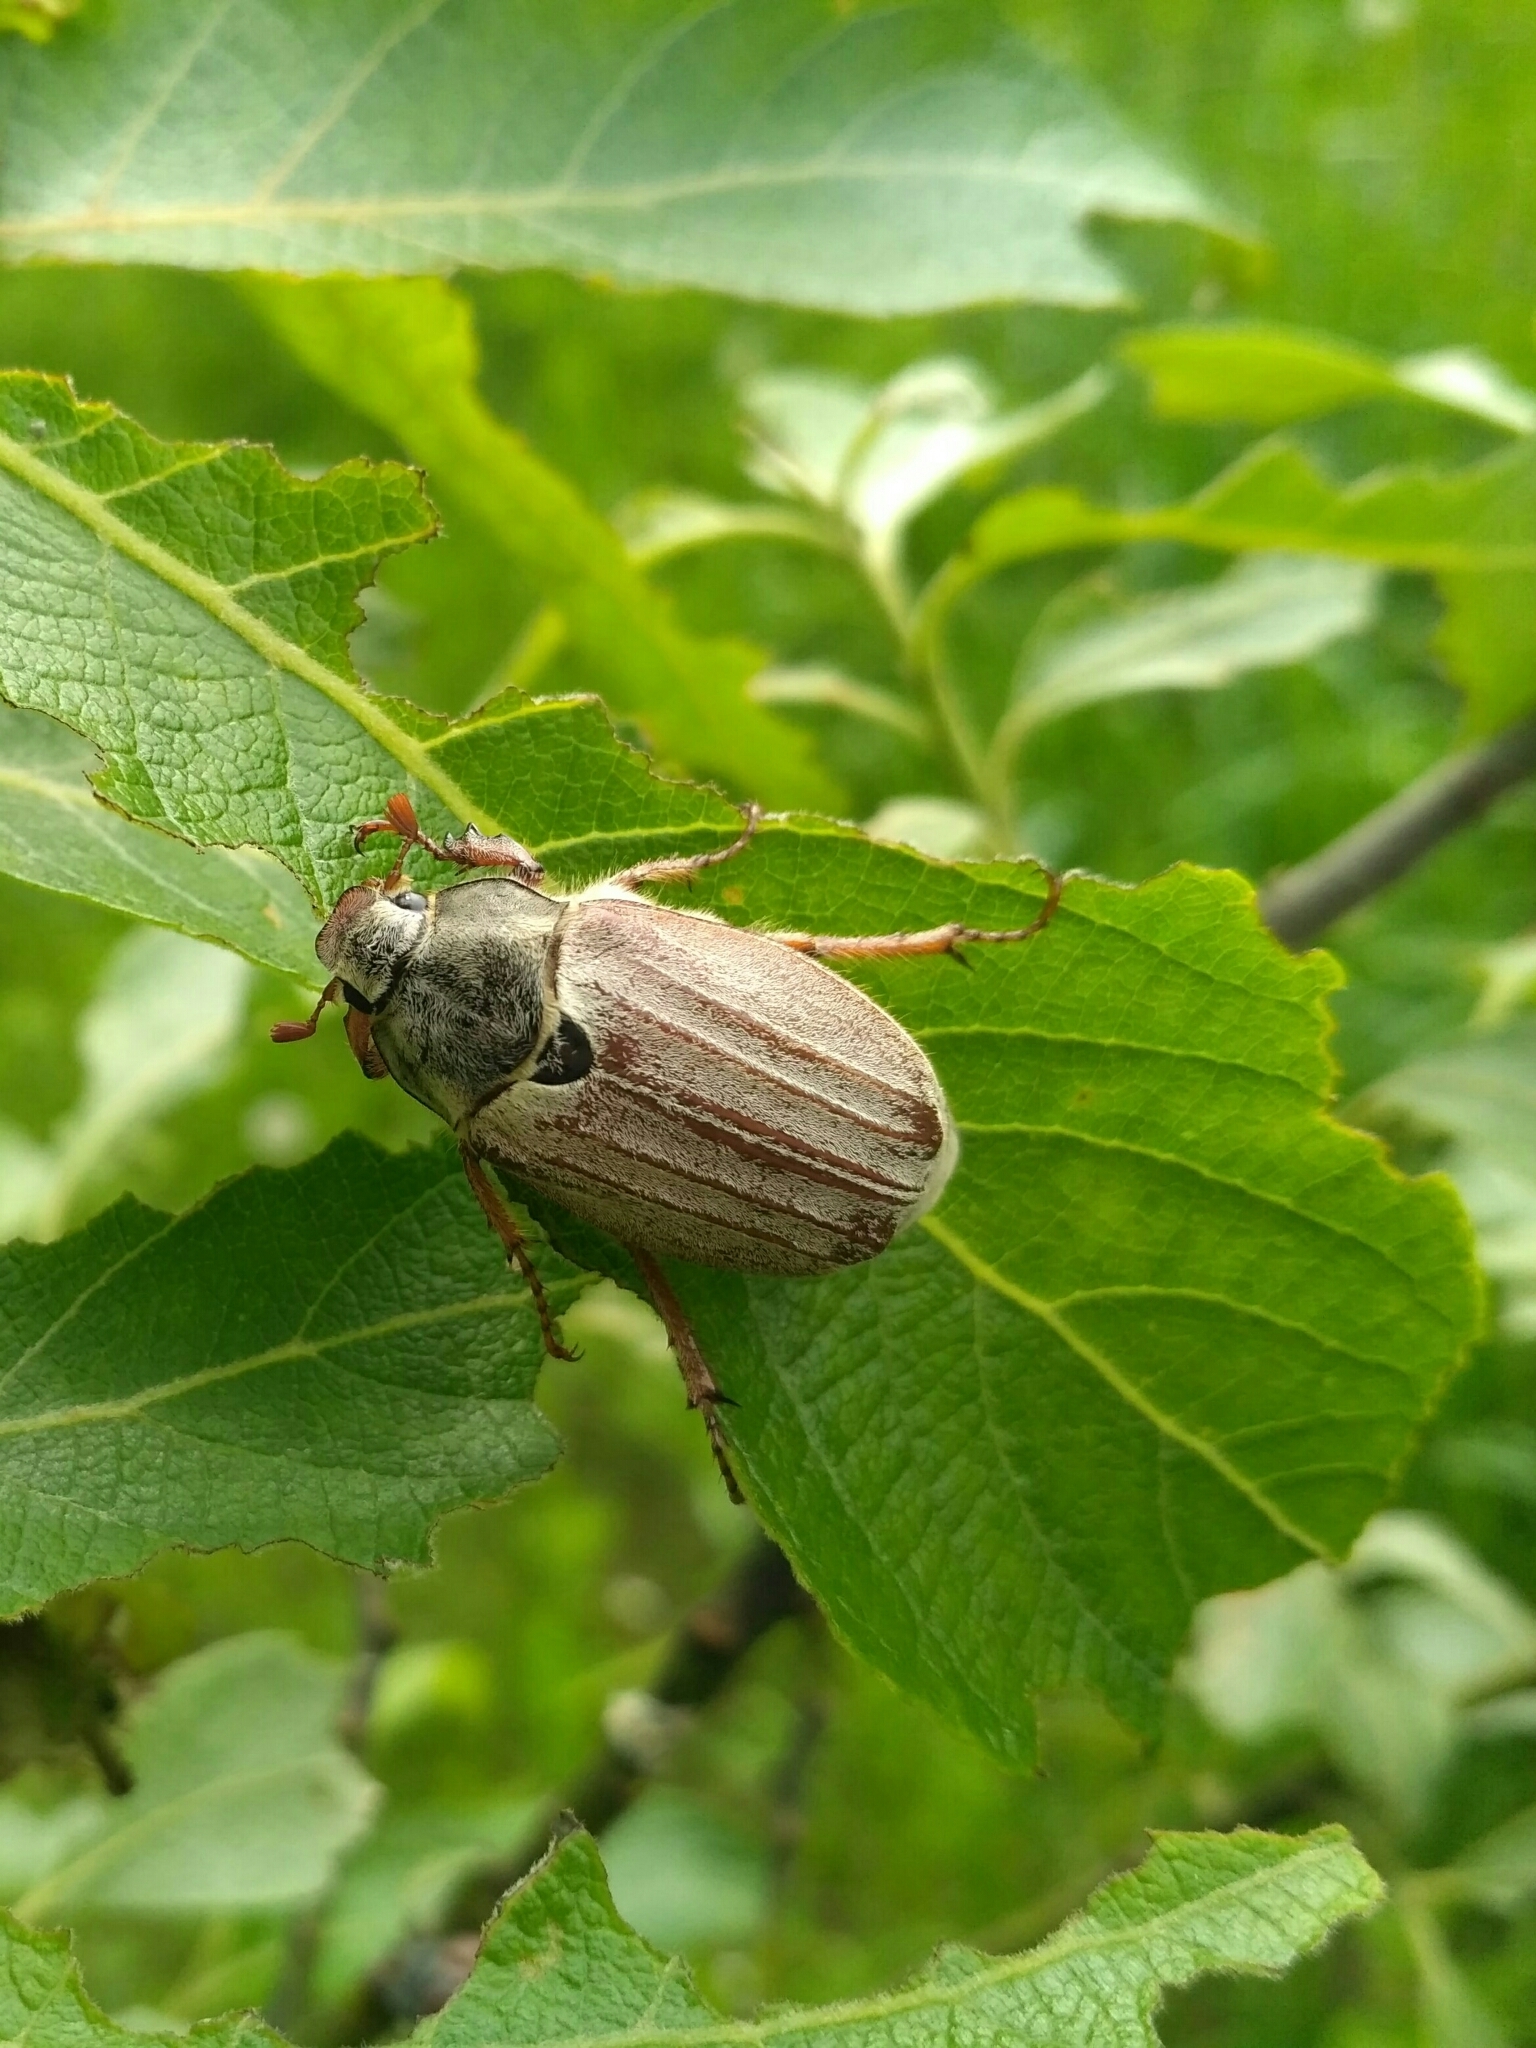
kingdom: Animalia
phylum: Arthropoda
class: Insecta
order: Coleoptera
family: Scarabaeidae
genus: Melolontha
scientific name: Melolontha melolontha
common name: Cockchafer maybeetle
